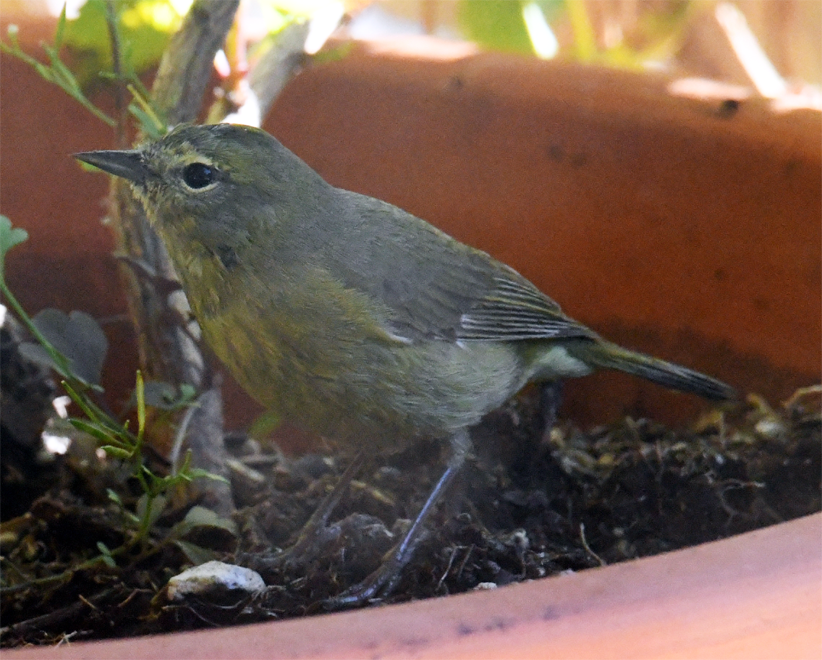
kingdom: Animalia
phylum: Chordata
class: Aves
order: Passeriformes
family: Parulidae
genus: Leiothlypis
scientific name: Leiothlypis celata
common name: Orange-crowned warbler
